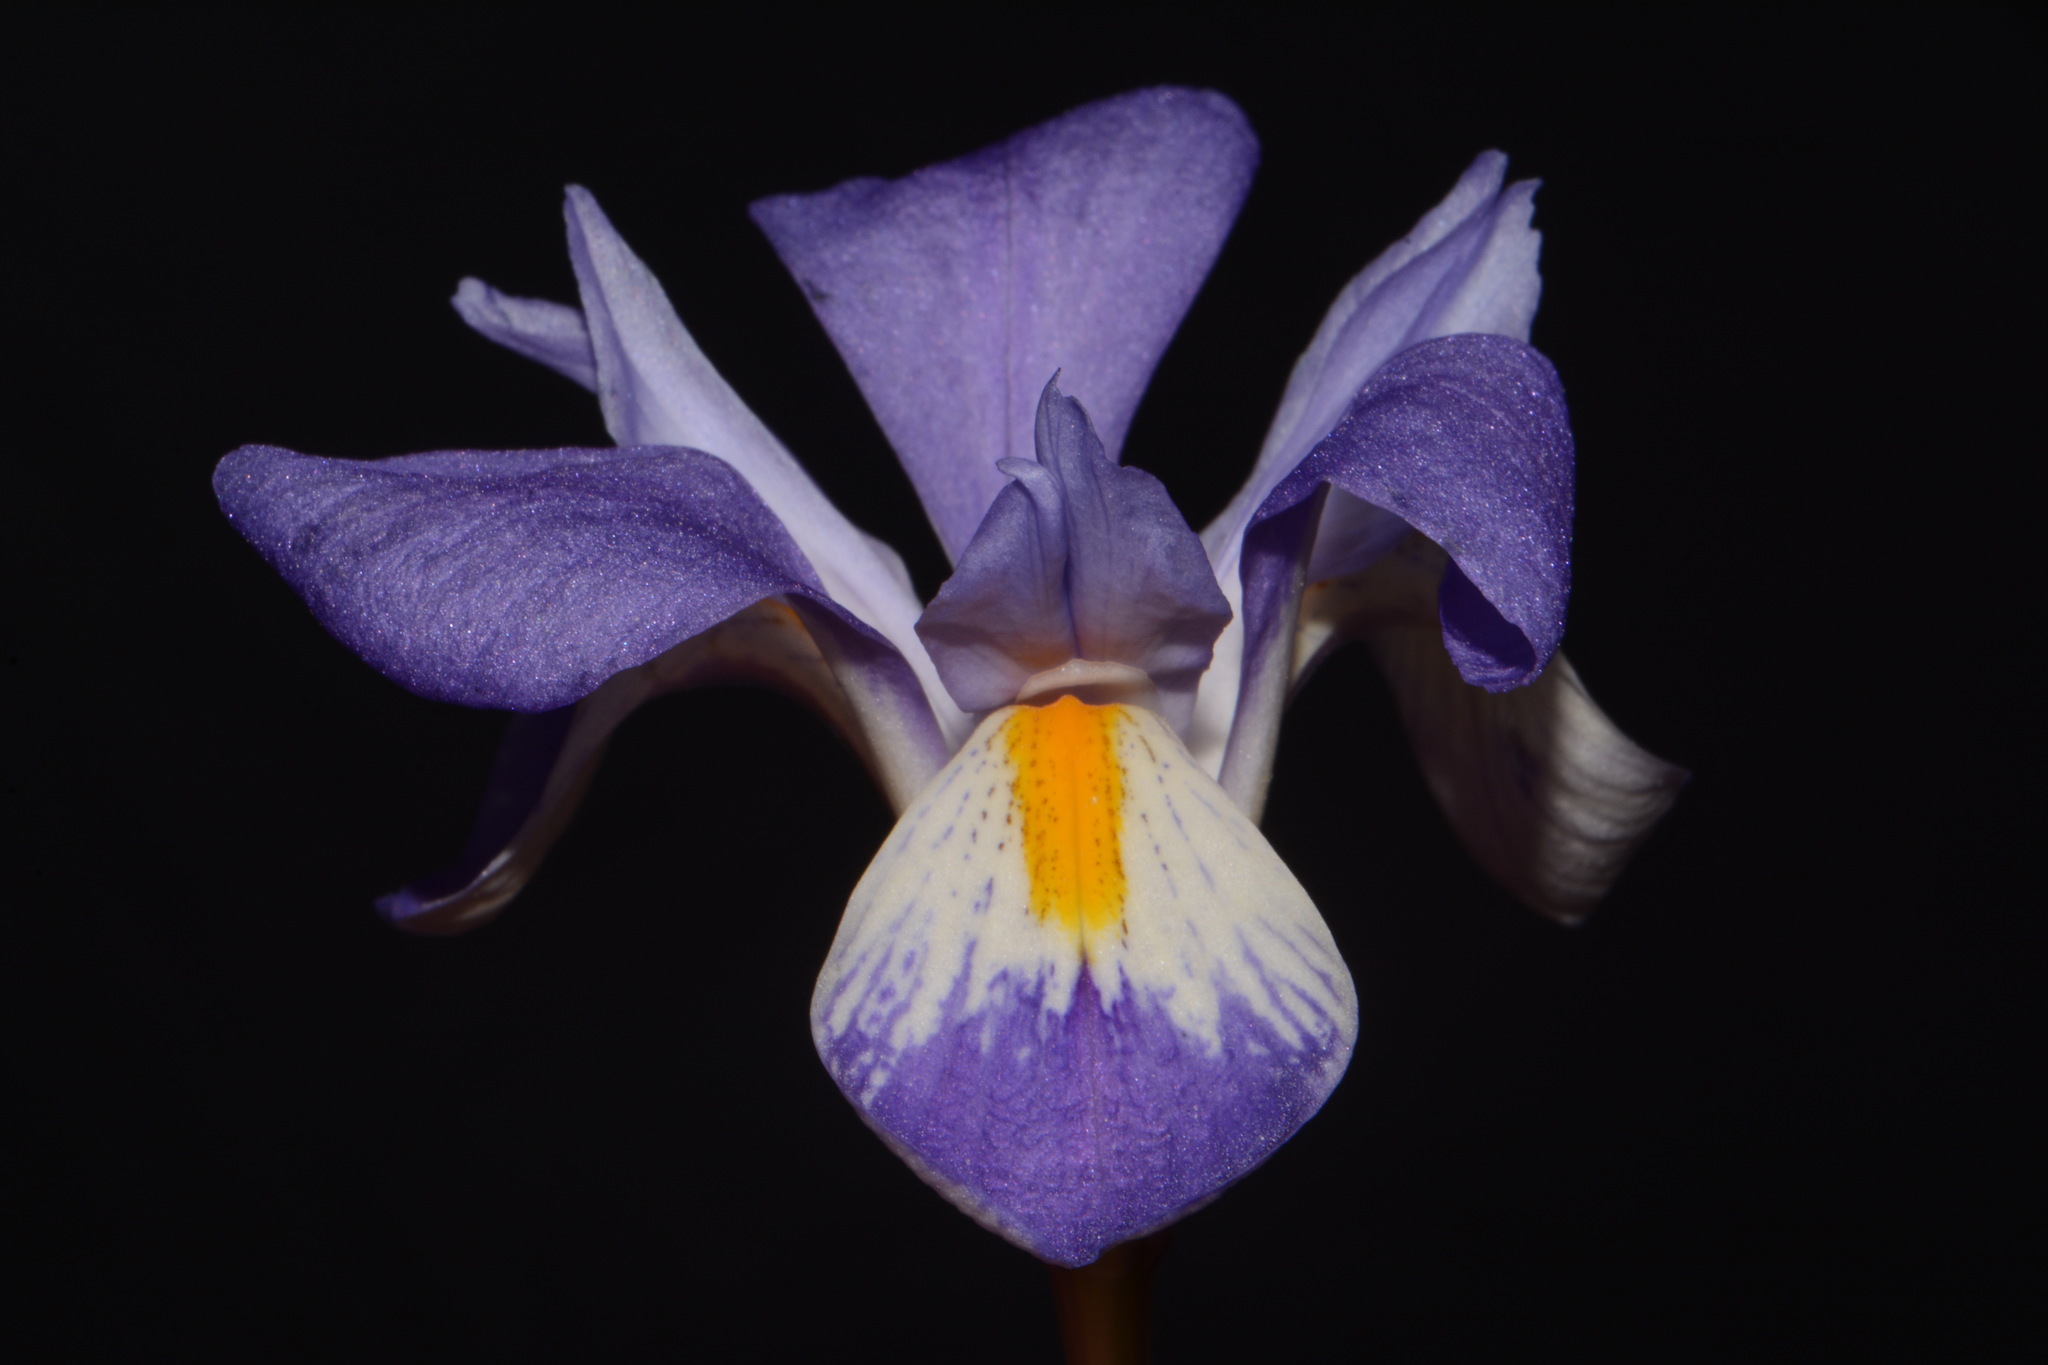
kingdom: Plantae
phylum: Tracheophyta
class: Liliopsida
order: Asparagales
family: Iridaceae
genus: Iris
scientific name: Iris verna
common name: Dwarf iris
